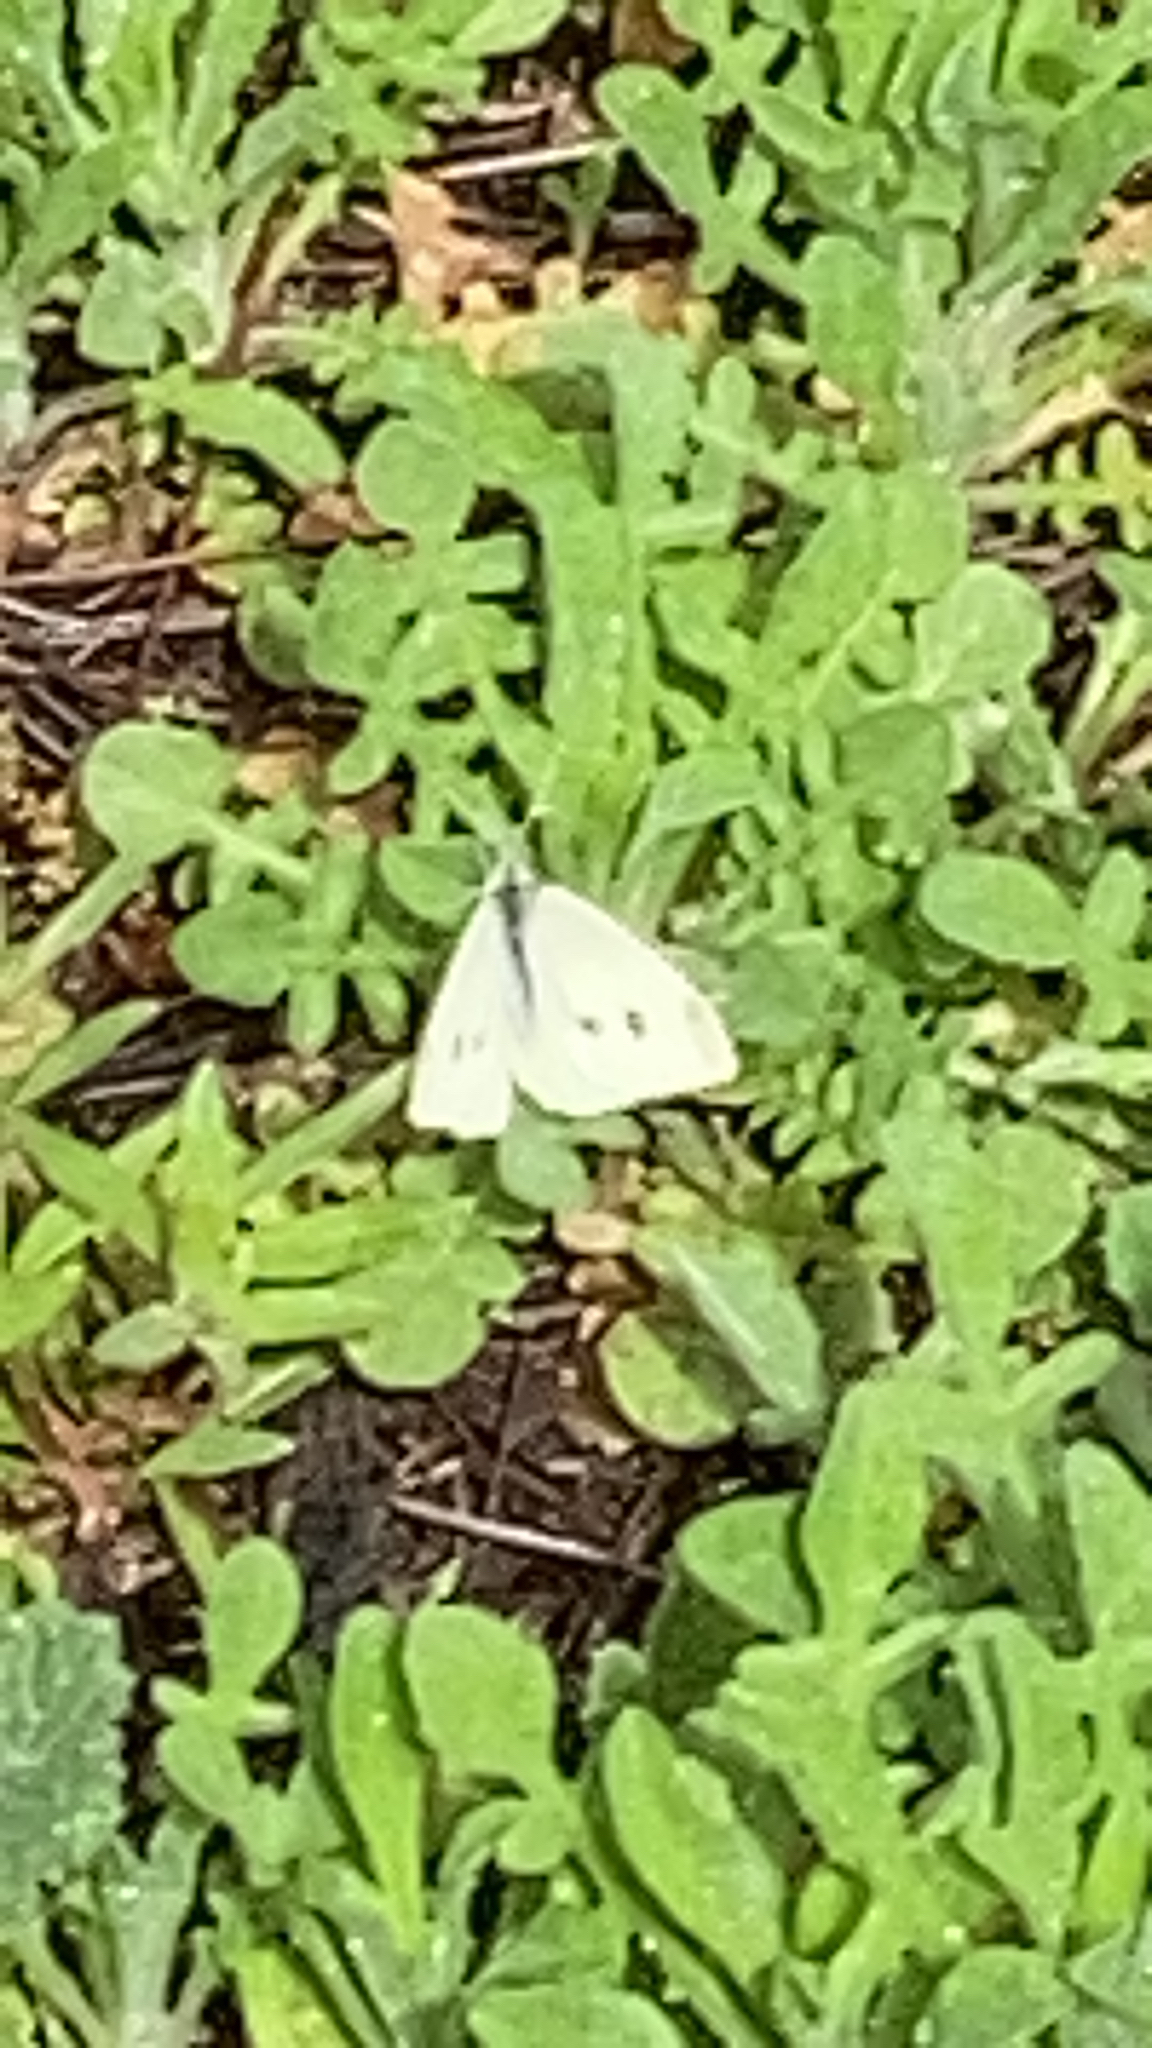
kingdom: Animalia
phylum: Arthropoda
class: Insecta
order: Lepidoptera
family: Pieridae
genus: Pieris
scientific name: Pieris rapae
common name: Small white
